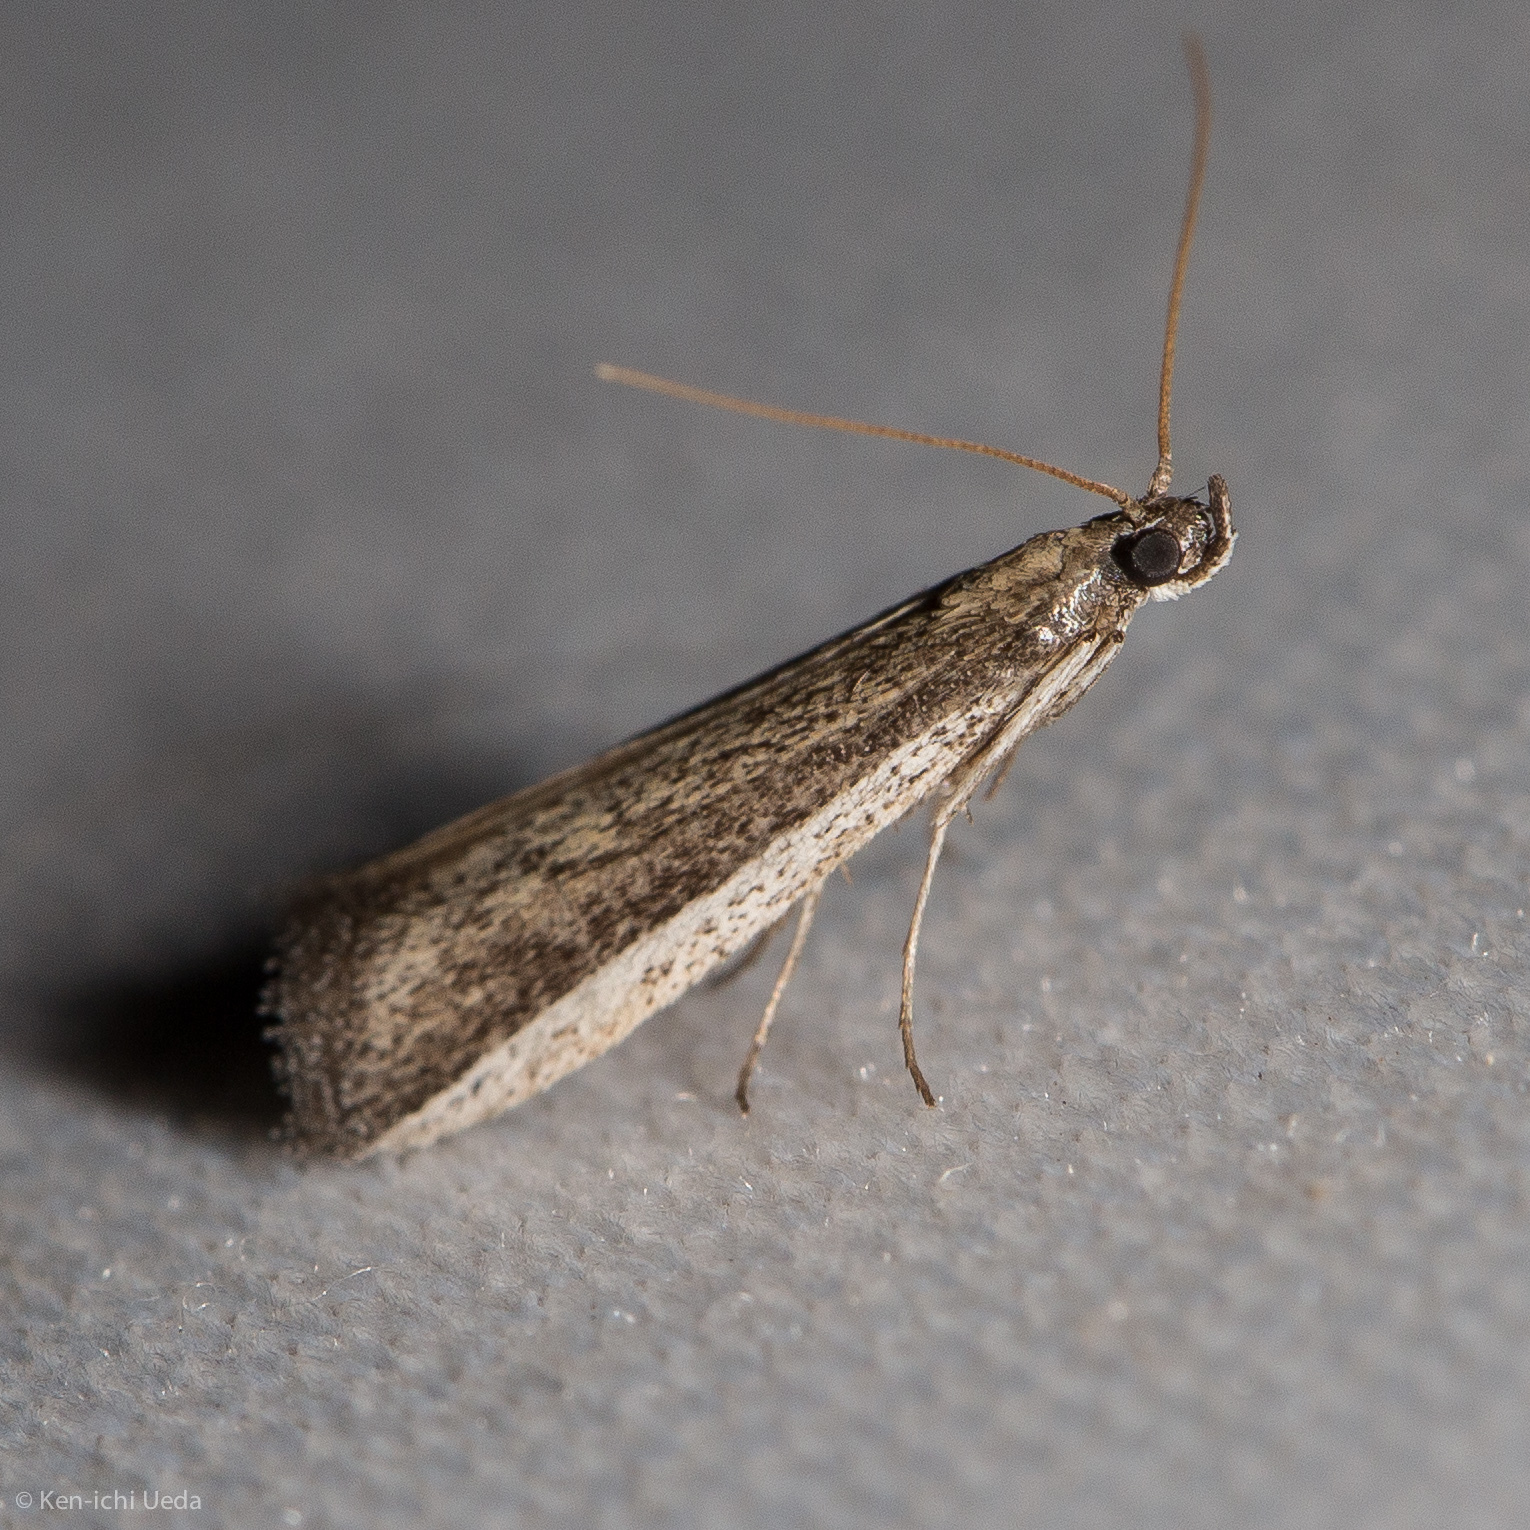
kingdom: Animalia
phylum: Arthropoda
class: Insecta
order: Lepidoptera
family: Pyralidae
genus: Barberia
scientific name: Barberia affinitella
